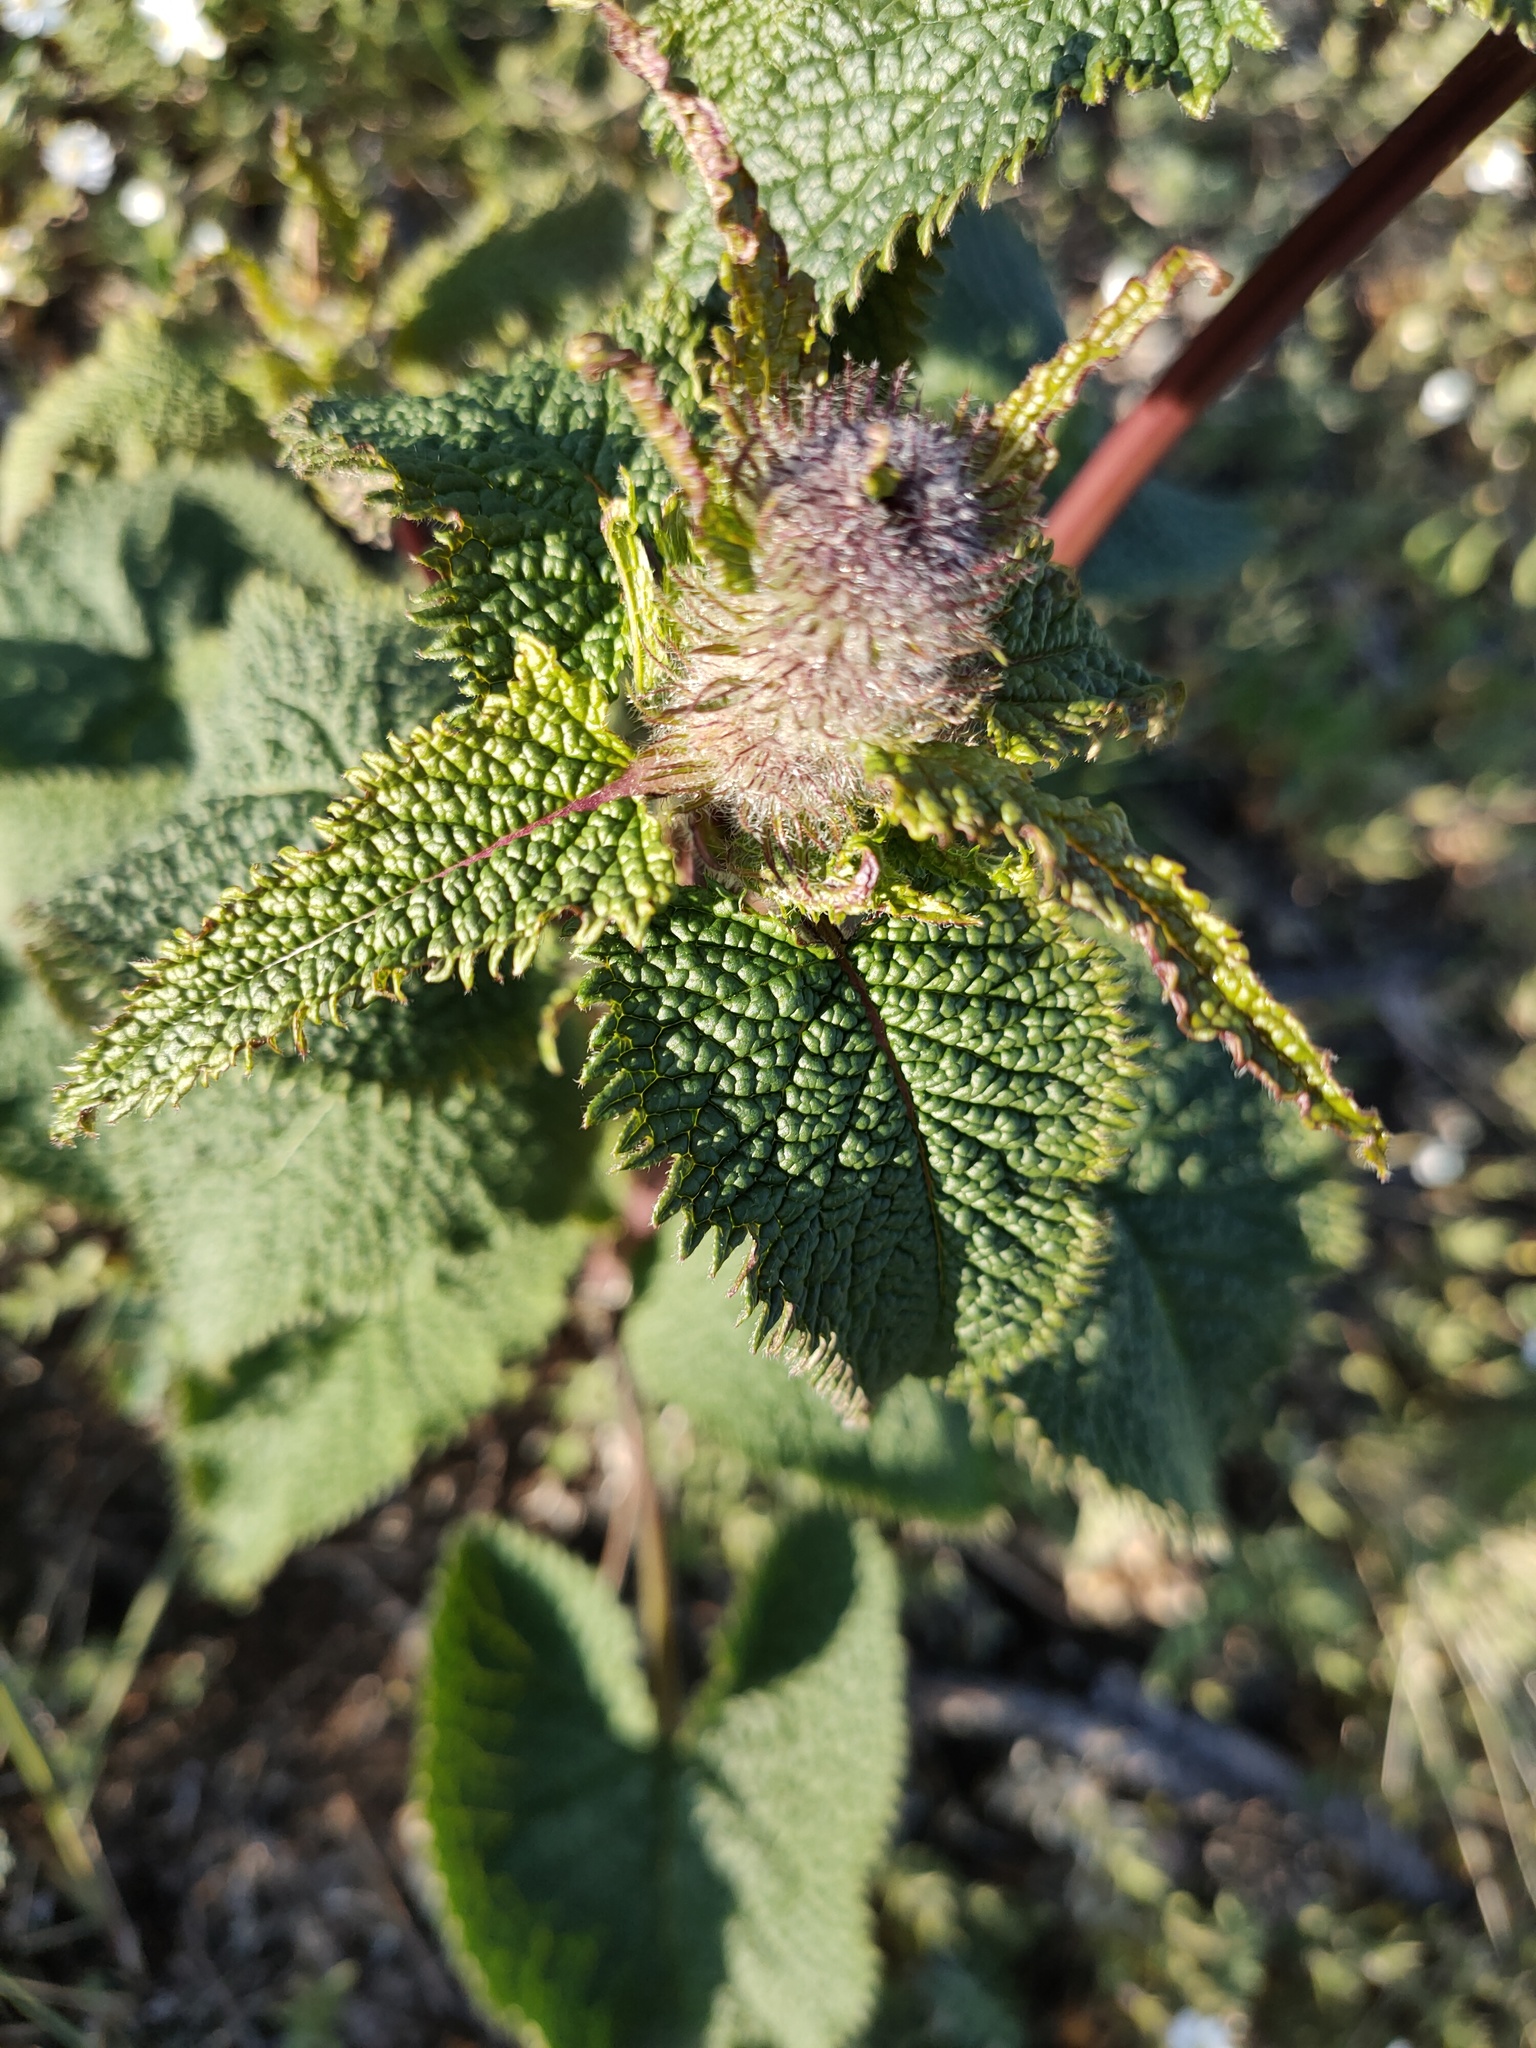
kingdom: Plantae
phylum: Tracheophyta
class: Magnoliopsida
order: Lamiales
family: Lamiaceae
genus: Phlomoides
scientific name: Phlomoides tuberosa
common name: Tuberous jerusalem sage
